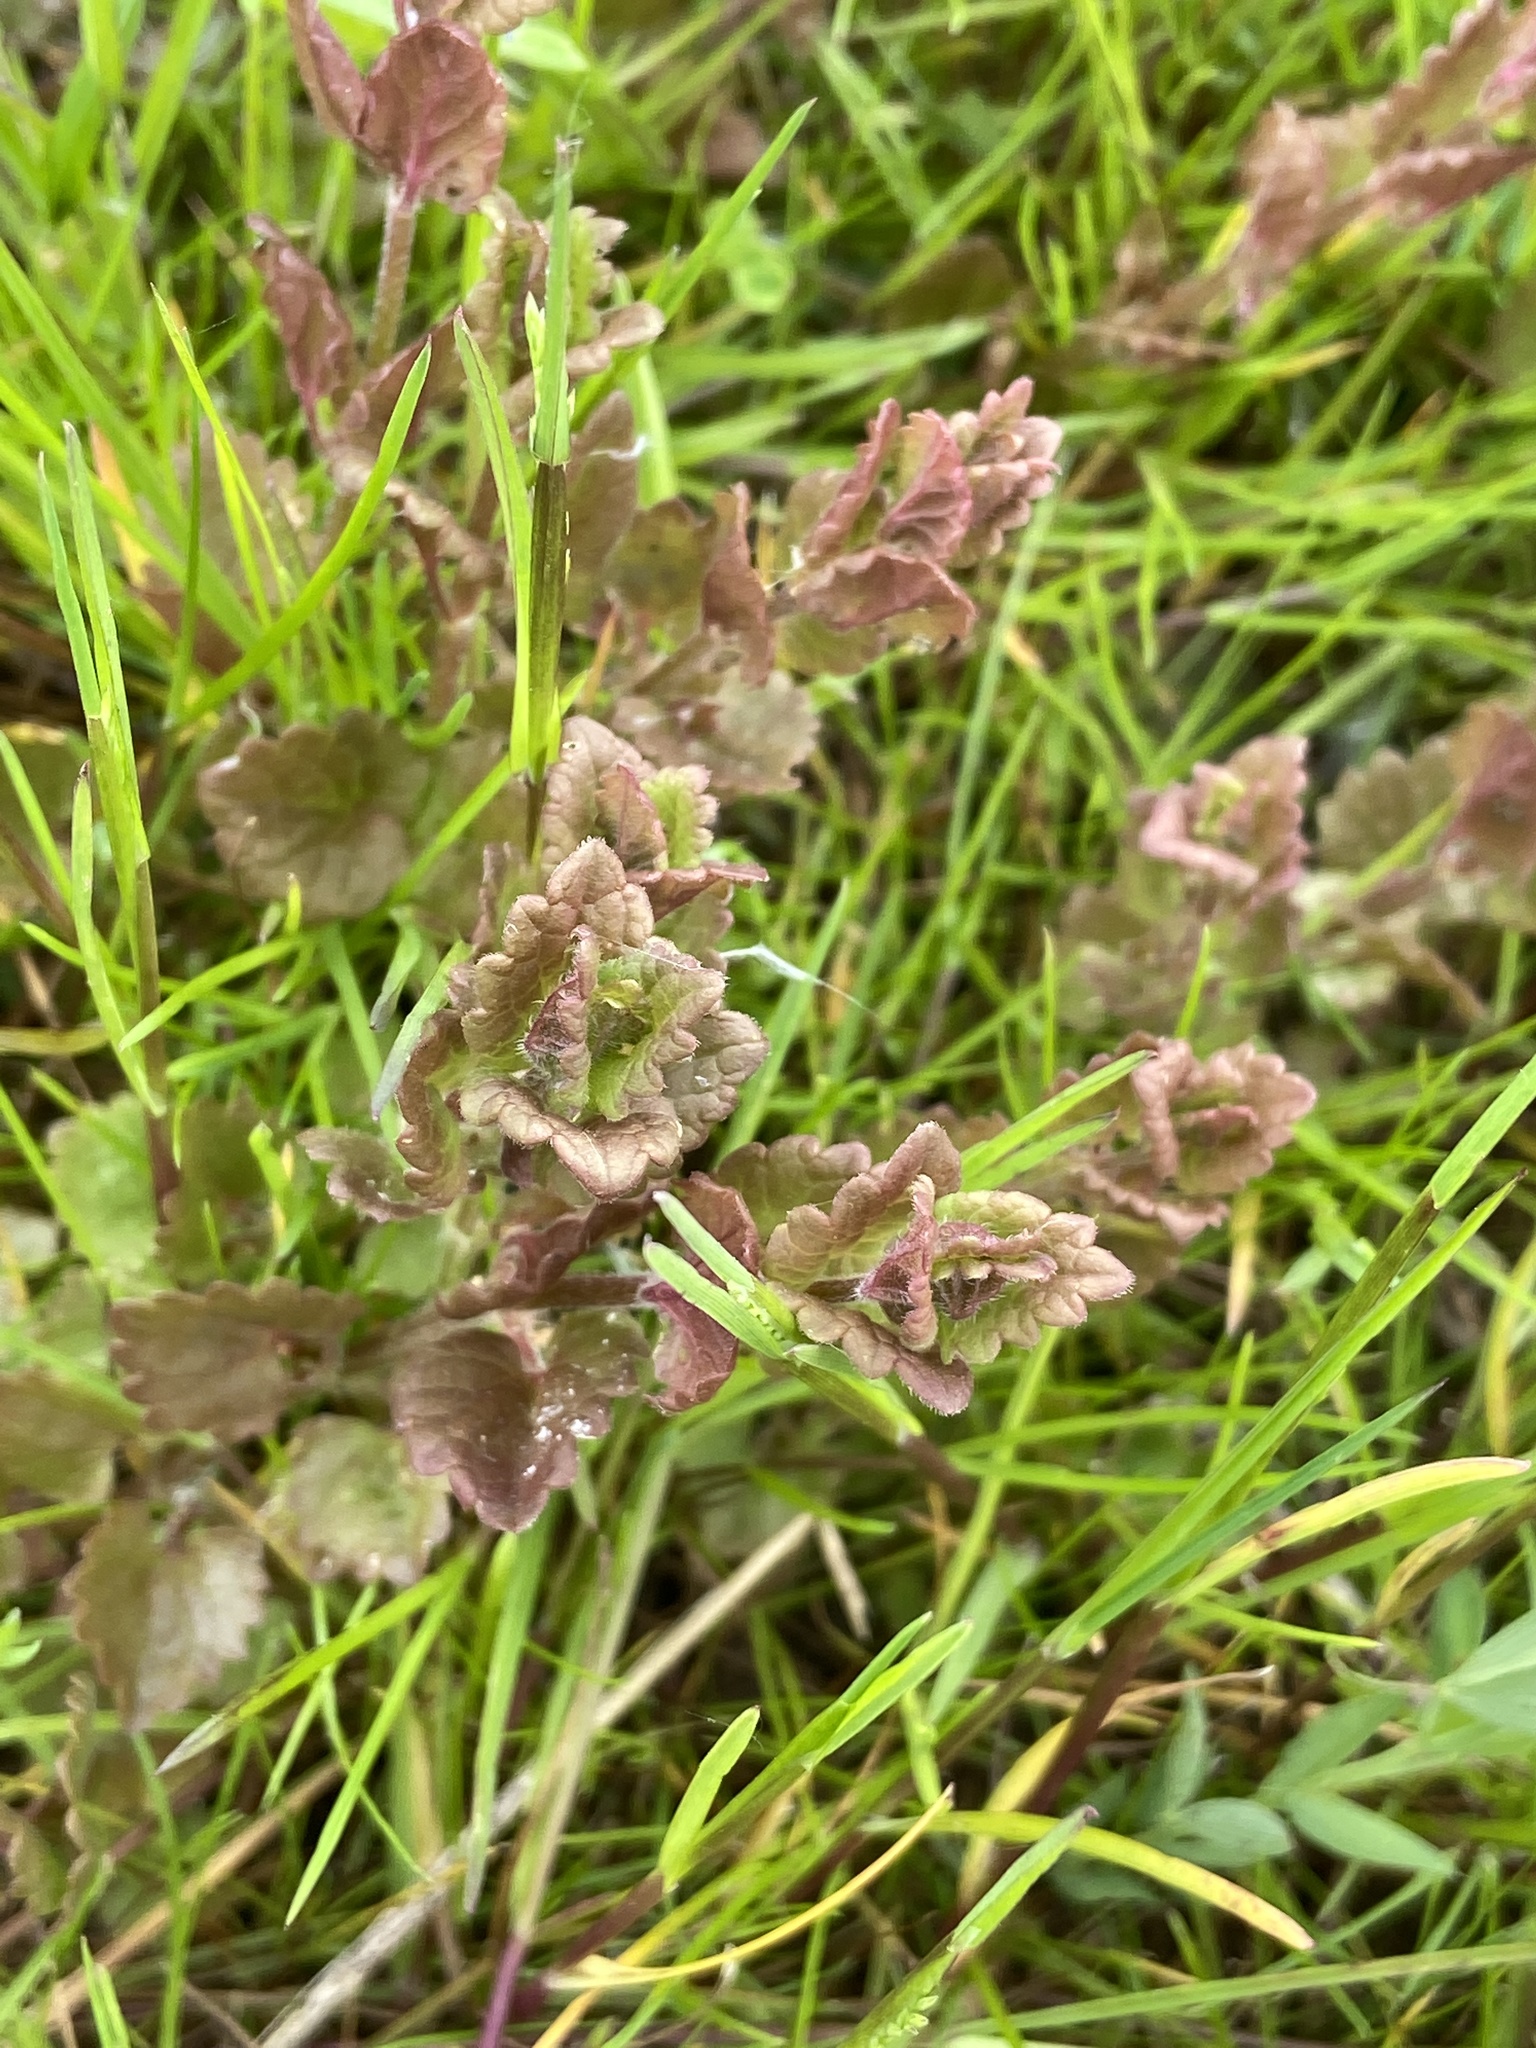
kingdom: Plantae
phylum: Tracheophyta
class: Magnoliopsida
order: Lamiales
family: Lamiaceae
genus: Glechoma
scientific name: Glechoma hederacea
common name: Ground ivy
